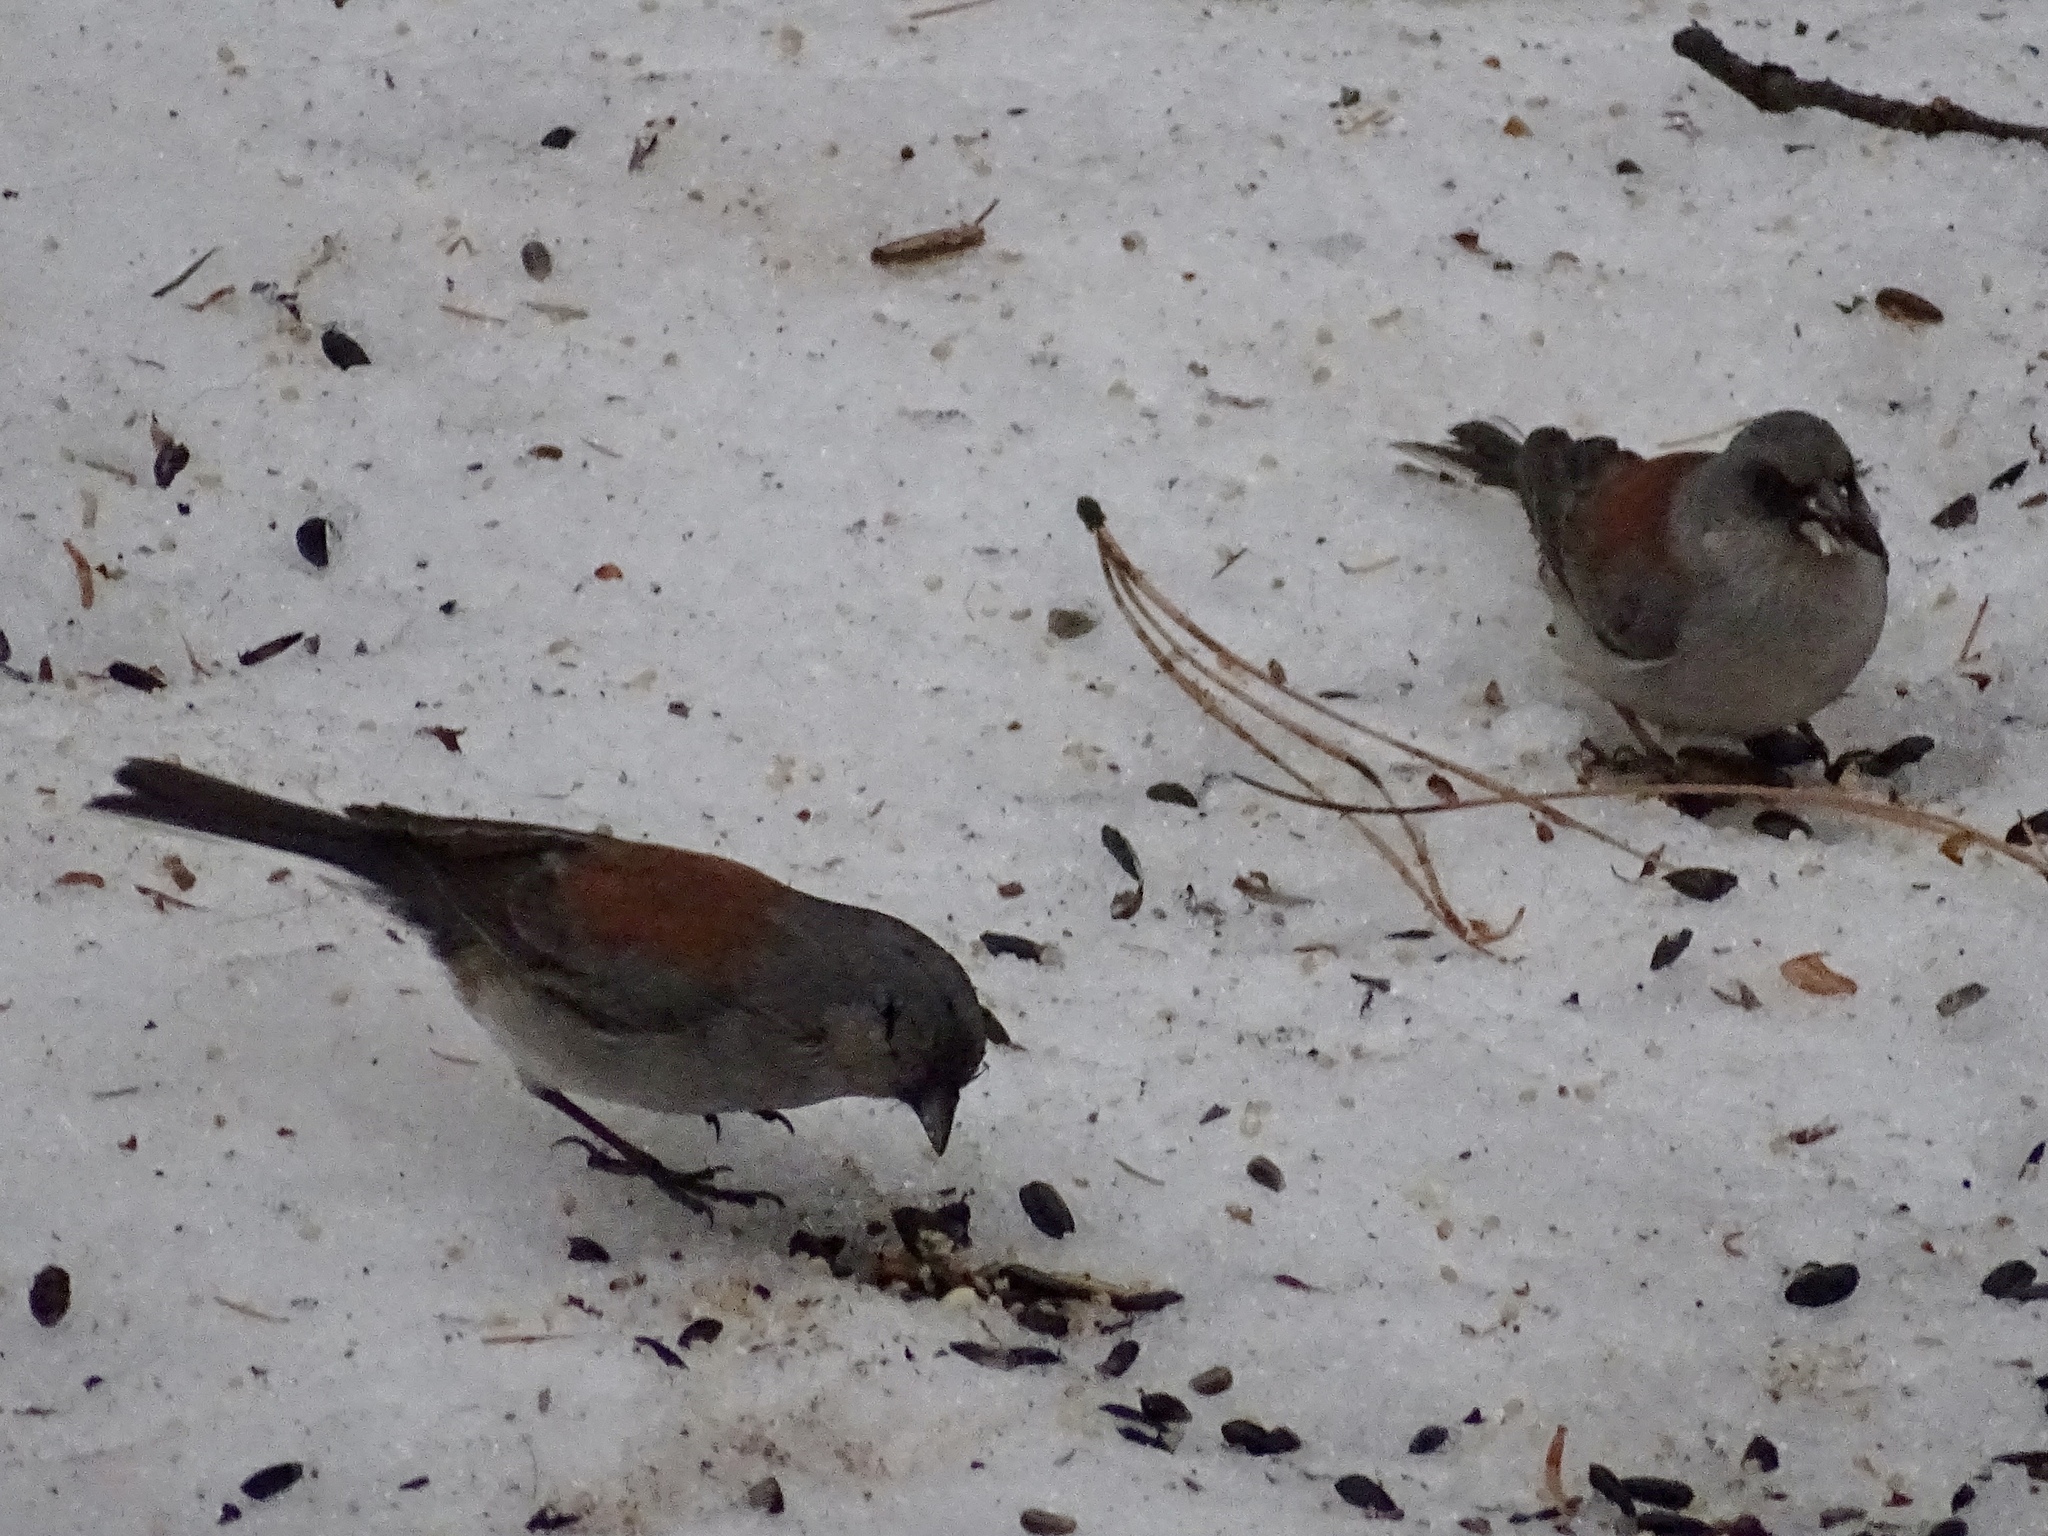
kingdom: Animalia
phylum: Chordata
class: Aves
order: Passeriformes
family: Passerellidae
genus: Junco
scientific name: Junco hyemalis
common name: Dark-eyed junco
